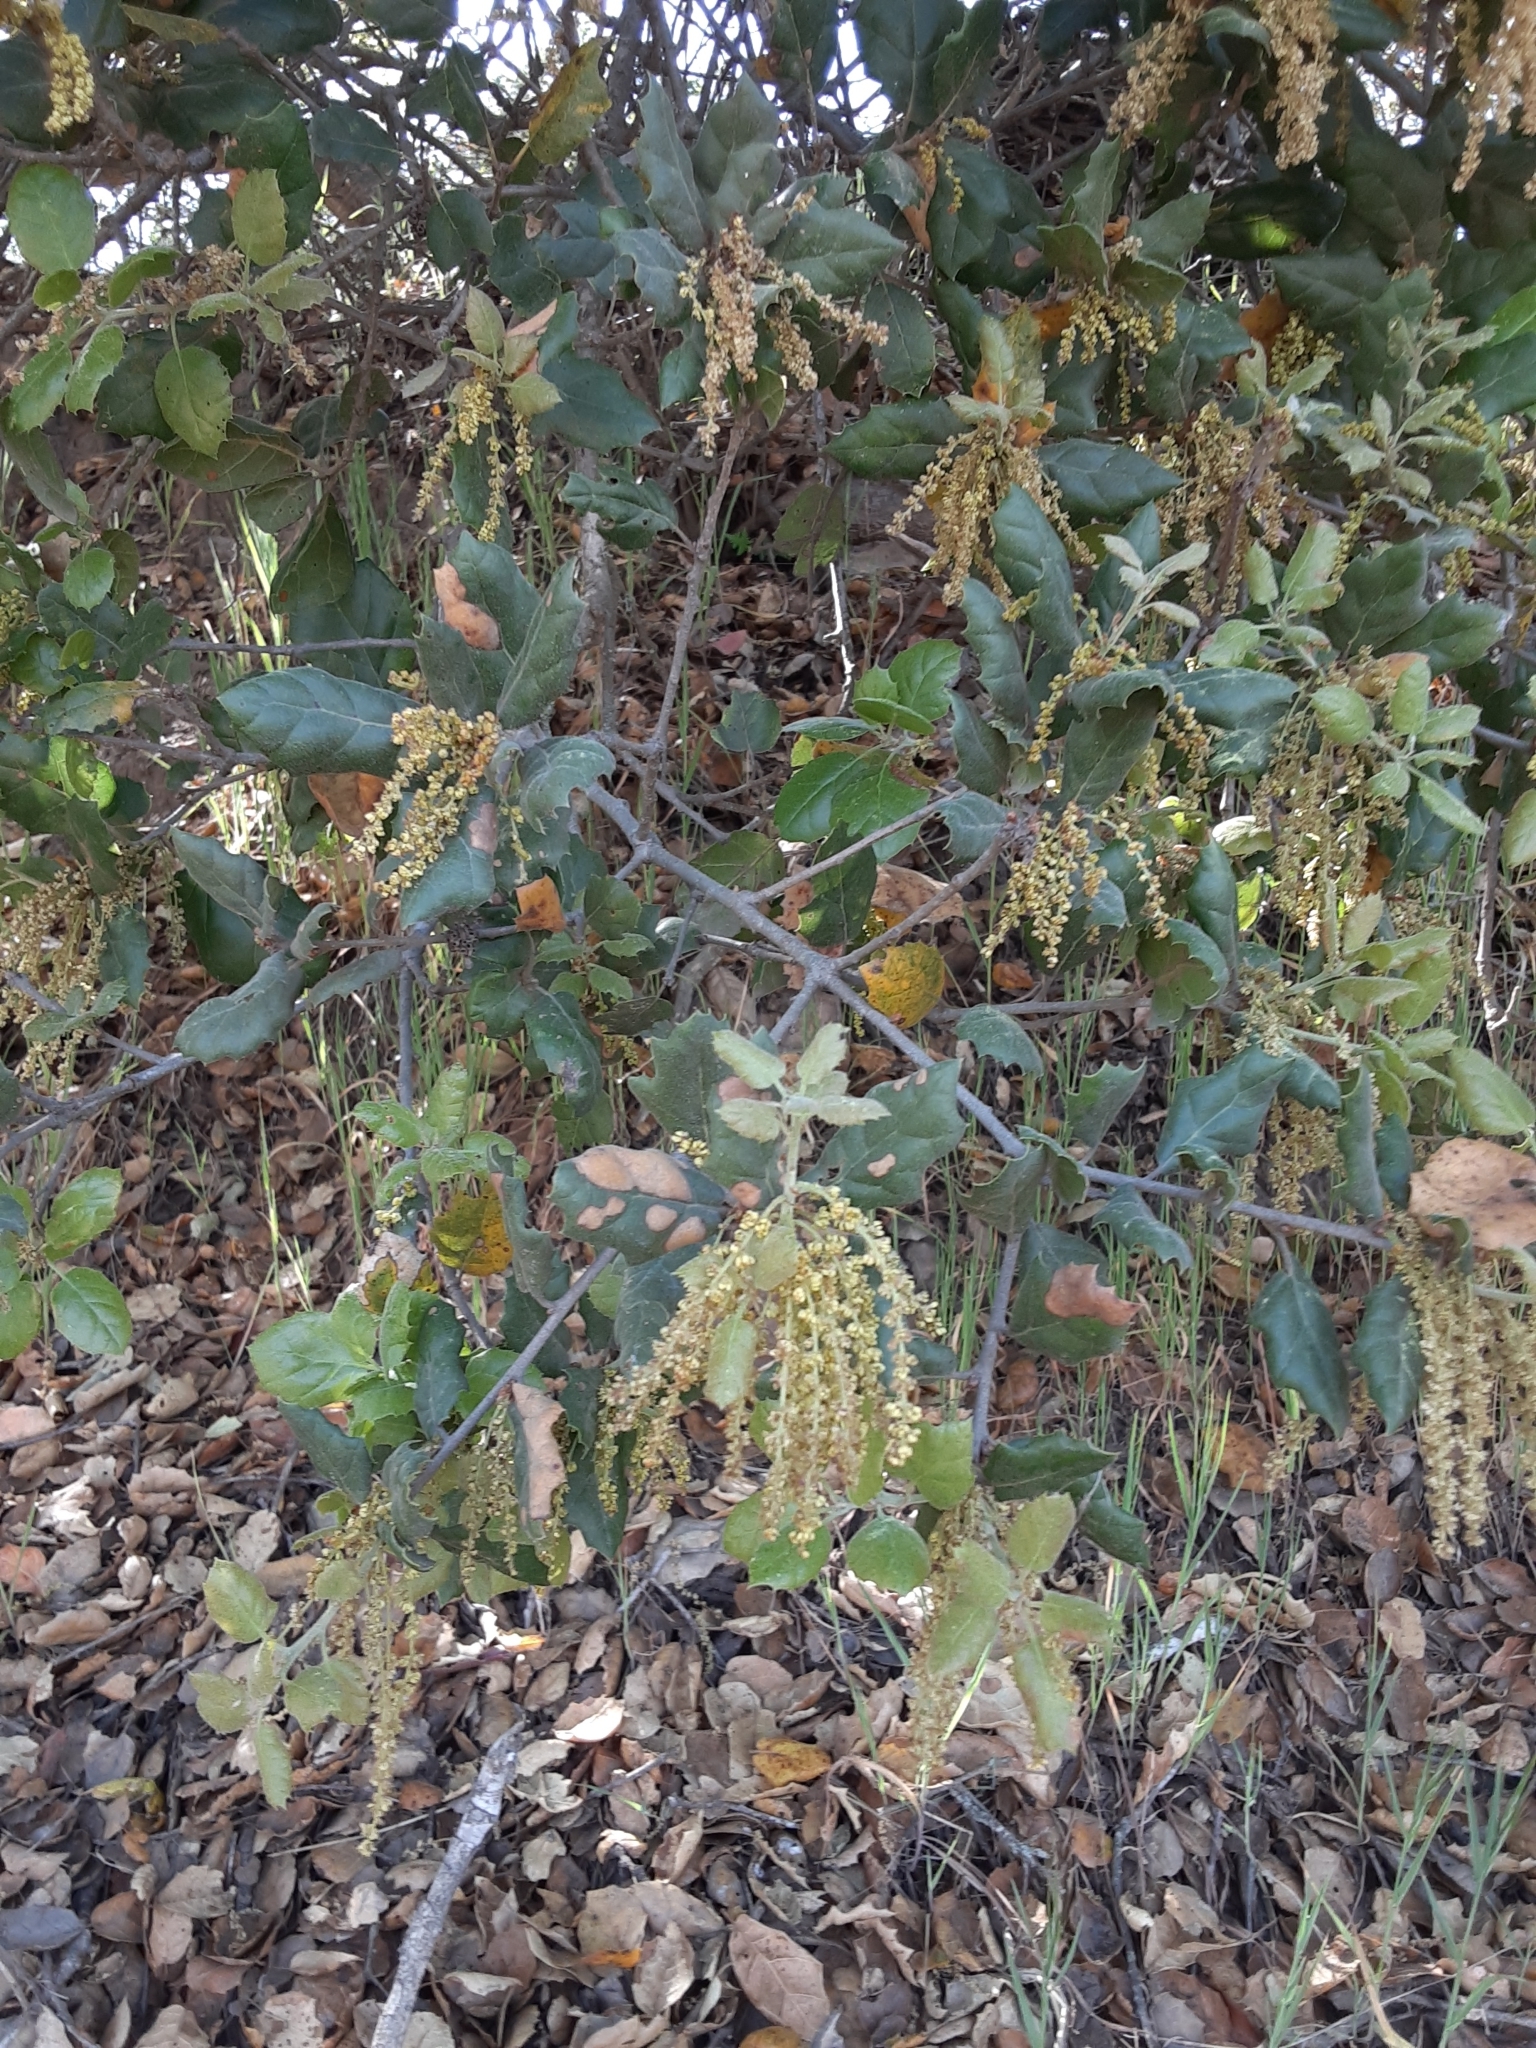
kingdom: Plantae
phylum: Tracheophyta
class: Magnoliopsida
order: Fagales
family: Fagaceae
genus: Quercus
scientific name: Quercus agrifolia
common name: California live oak
